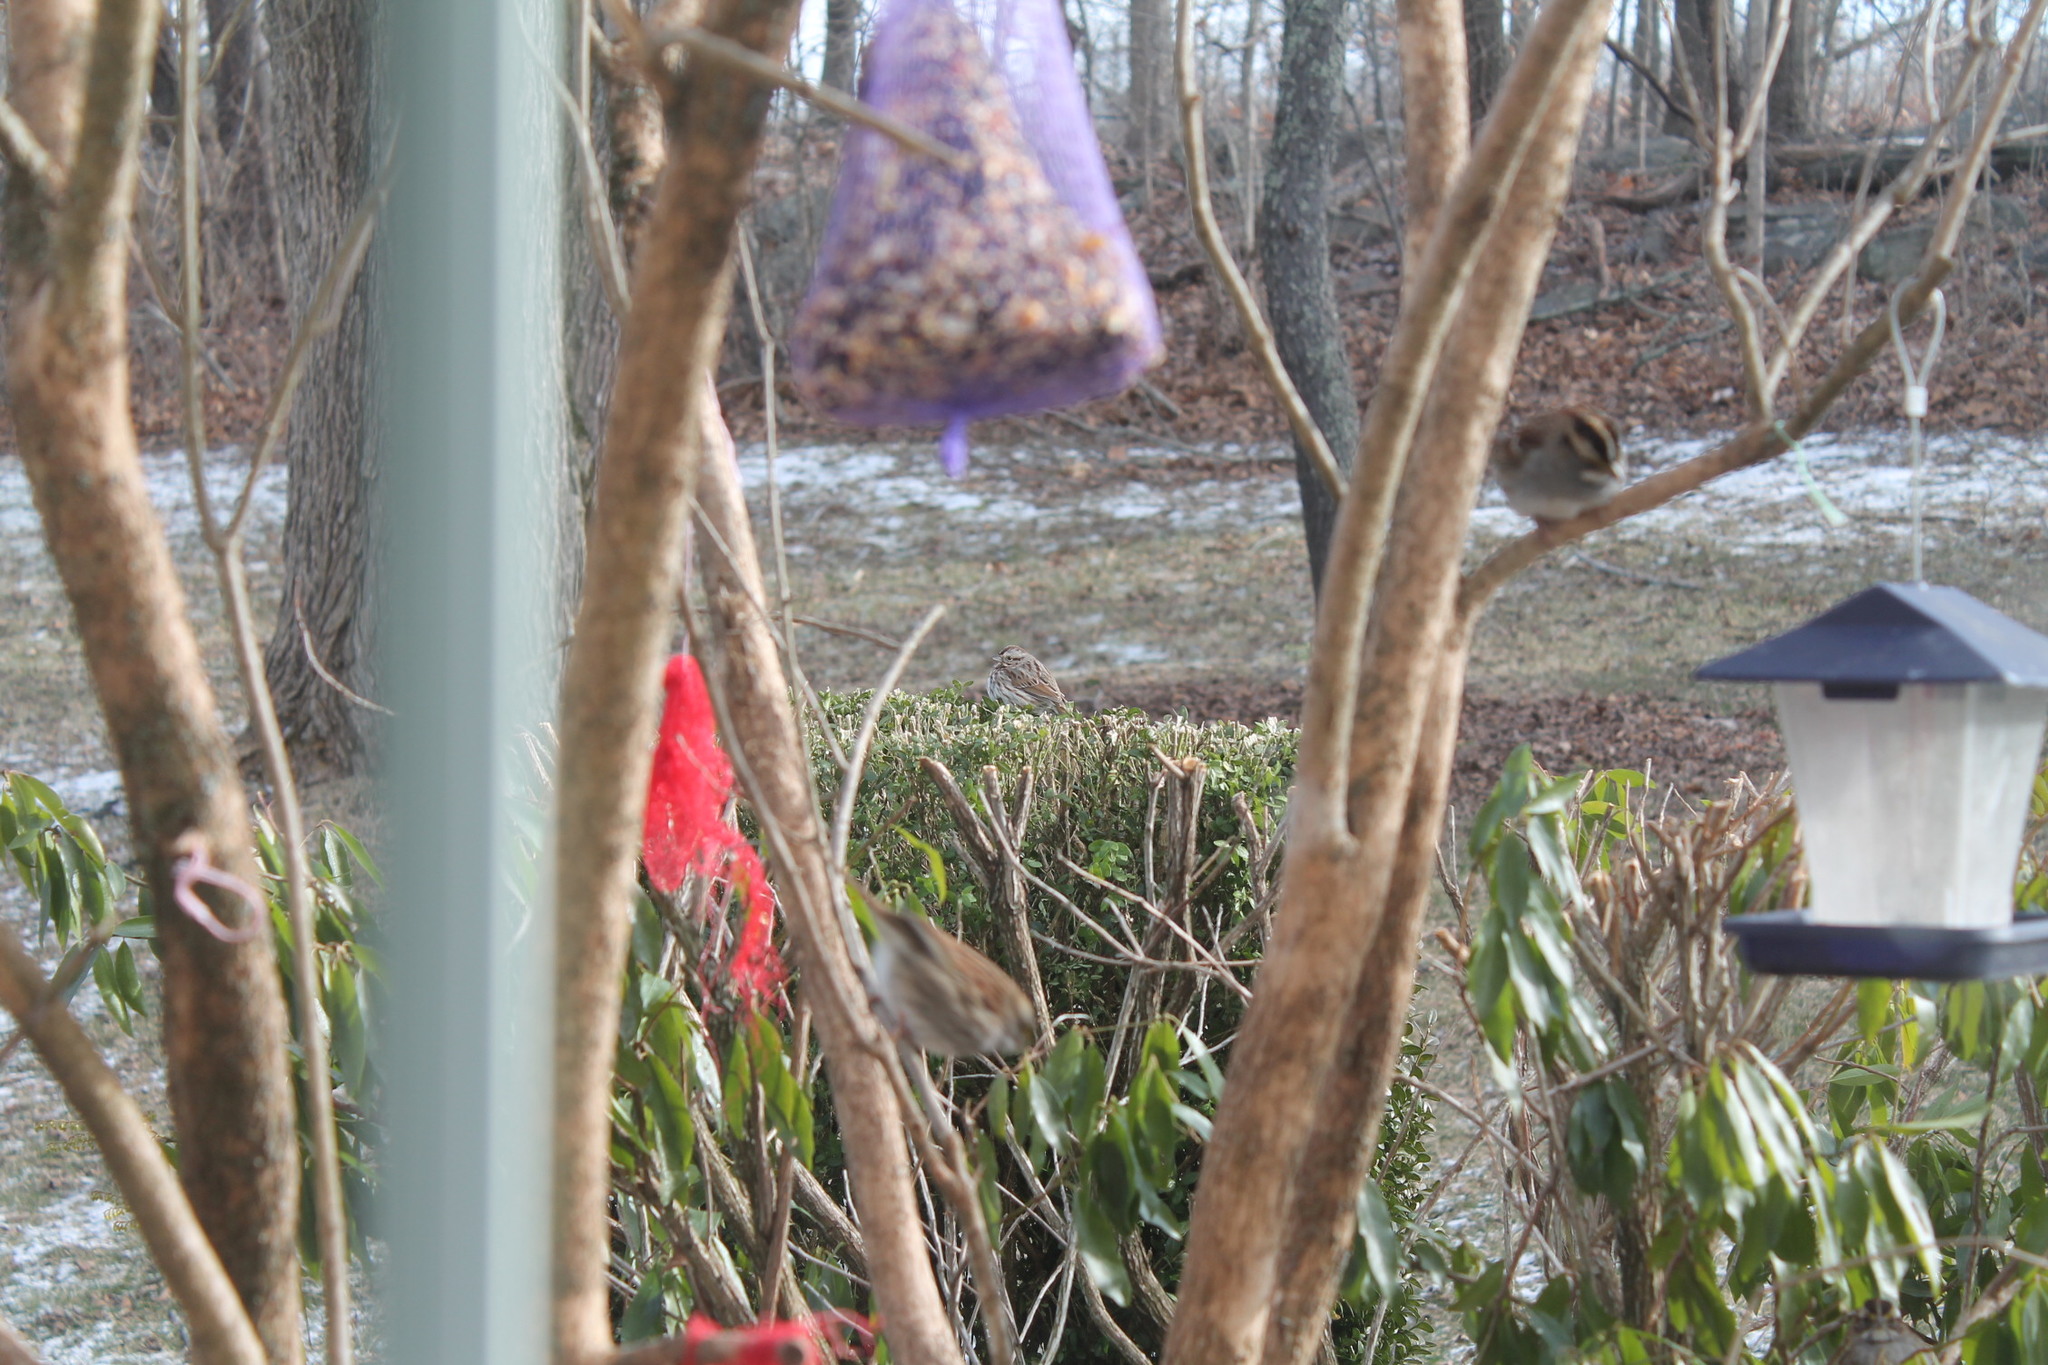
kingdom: Animalia
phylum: Chordata
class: Aves
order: Passeriformes
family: Passerellidae
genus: Melospiza
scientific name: Melospiza melodia
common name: Song sparrow
